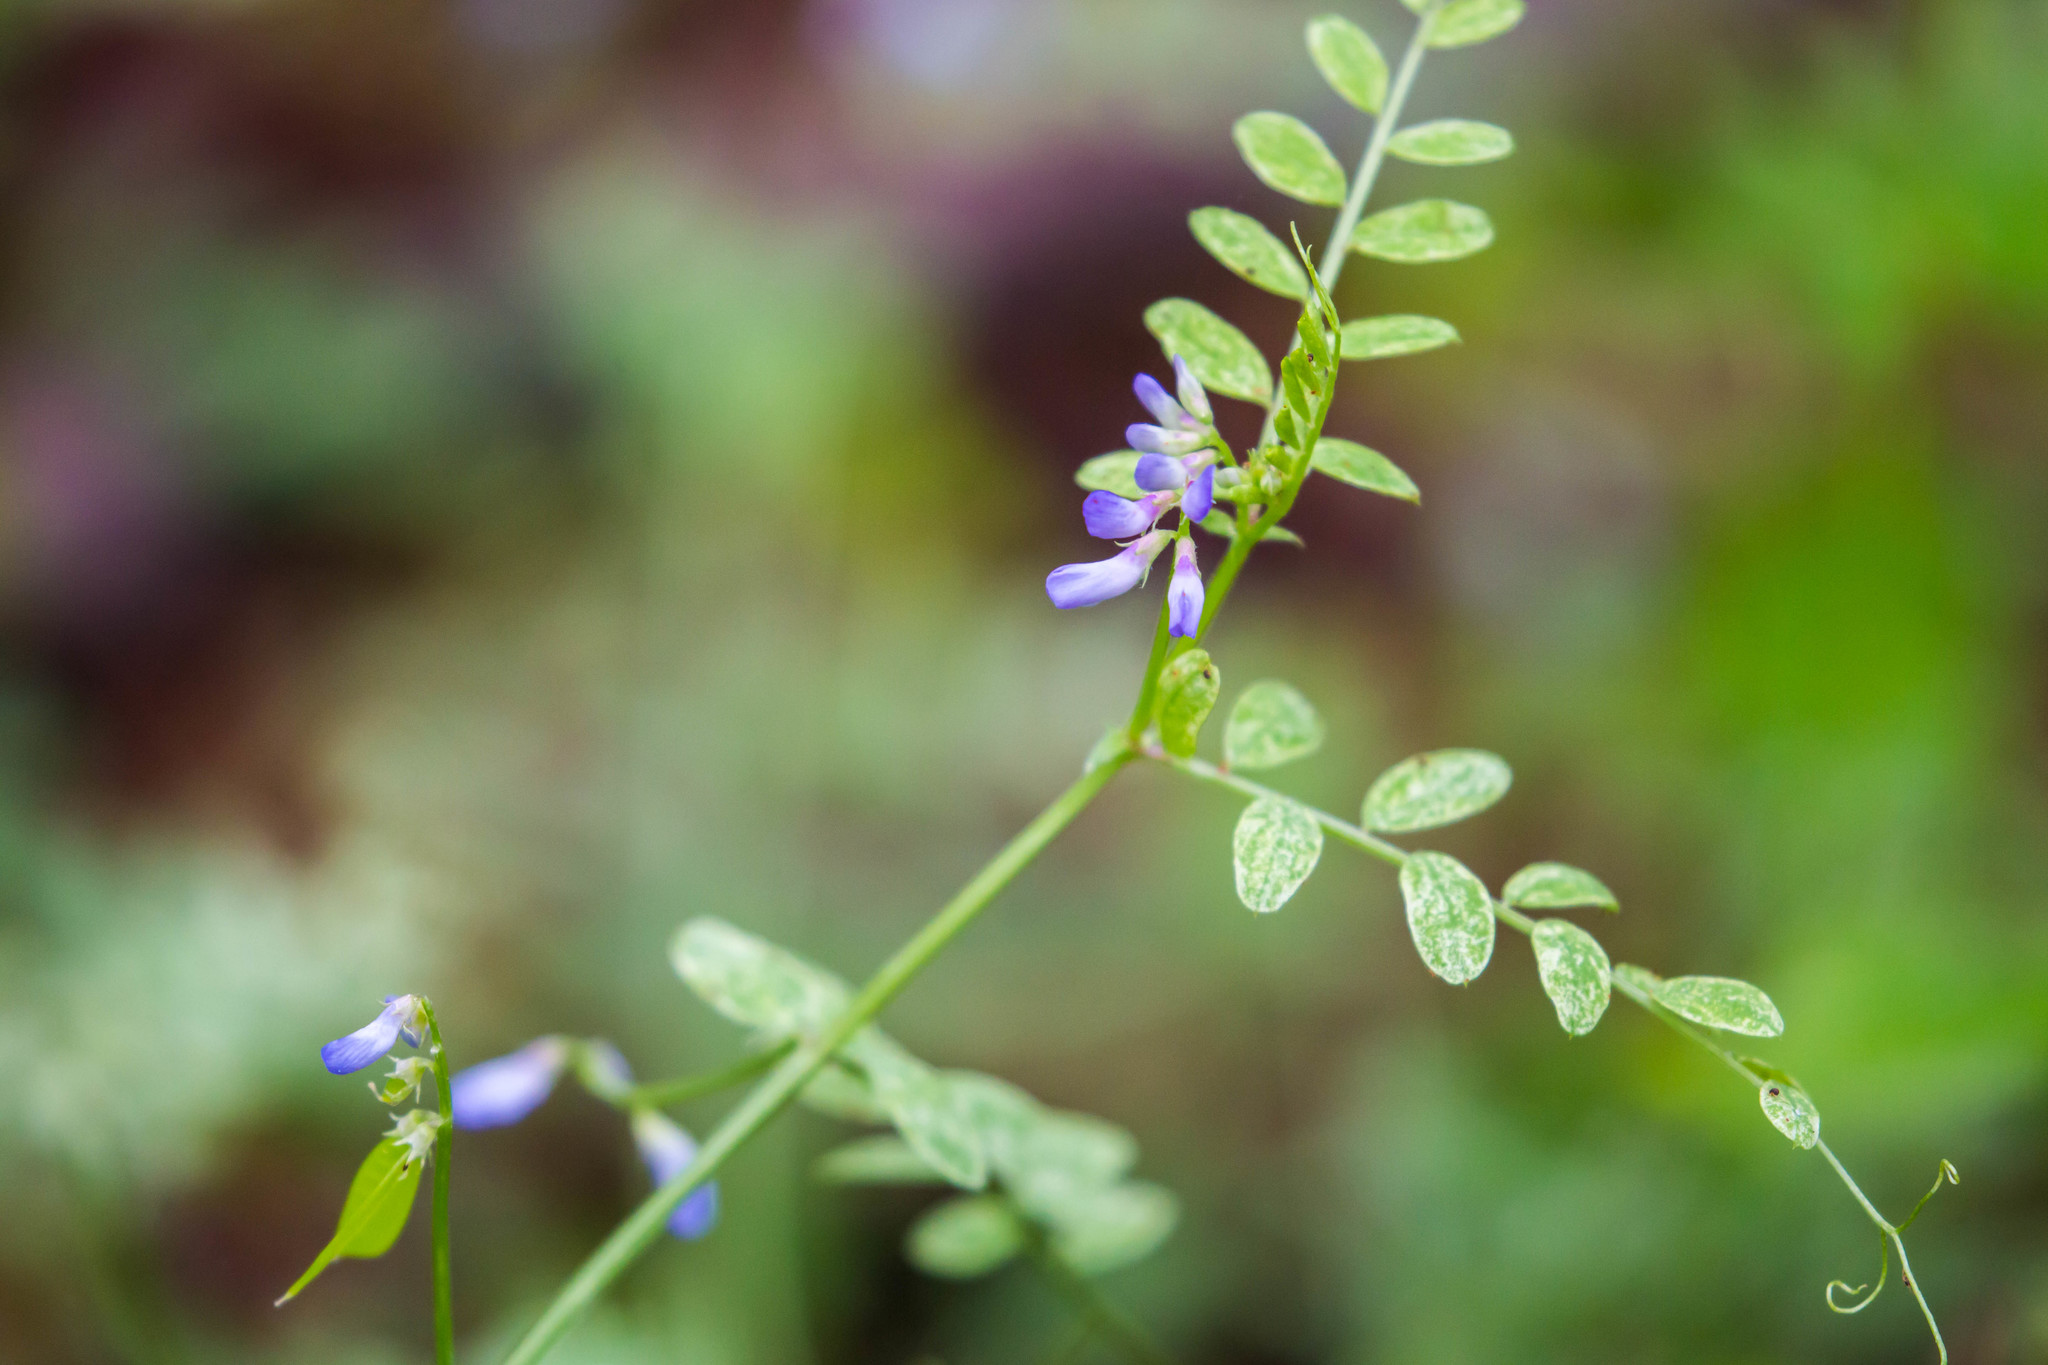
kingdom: Plantae
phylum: Tracheophyta
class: Magnoliopsida
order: Fabales
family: Fabaceae
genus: Vicia
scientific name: Vicia ludoviciana
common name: Louisiana vetch
